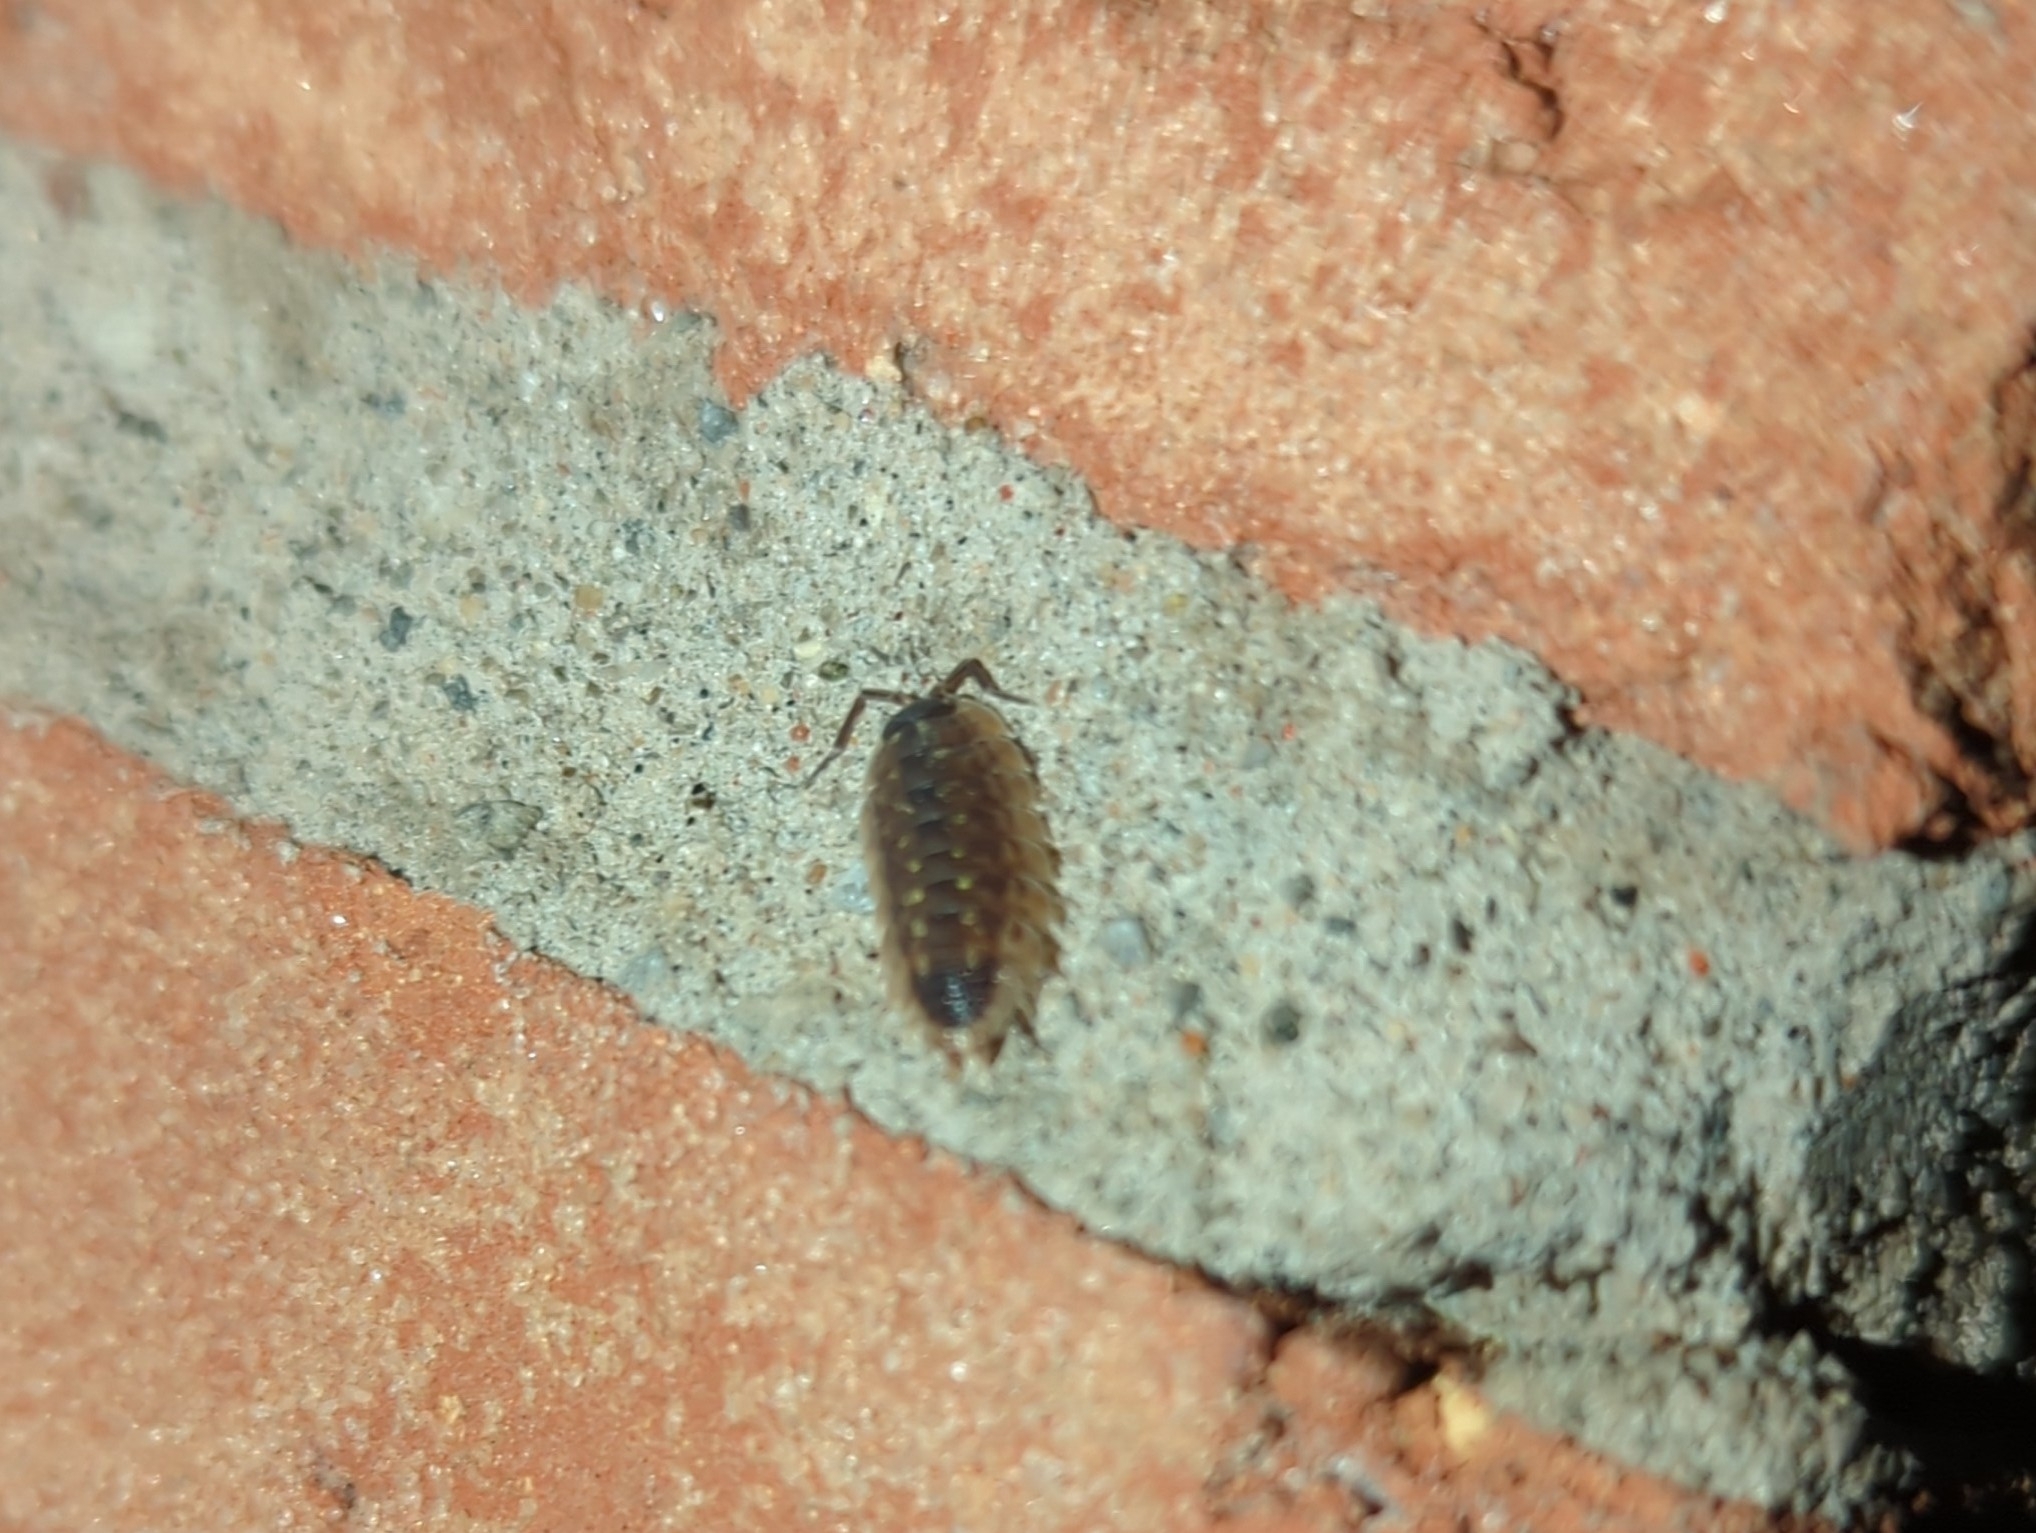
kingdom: Animalia
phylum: Arthropoda
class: Malacostraca
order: Isopoda
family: Porcellionidae
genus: Porcellio
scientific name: Porcellio spinicornis
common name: Painted woodlouse
